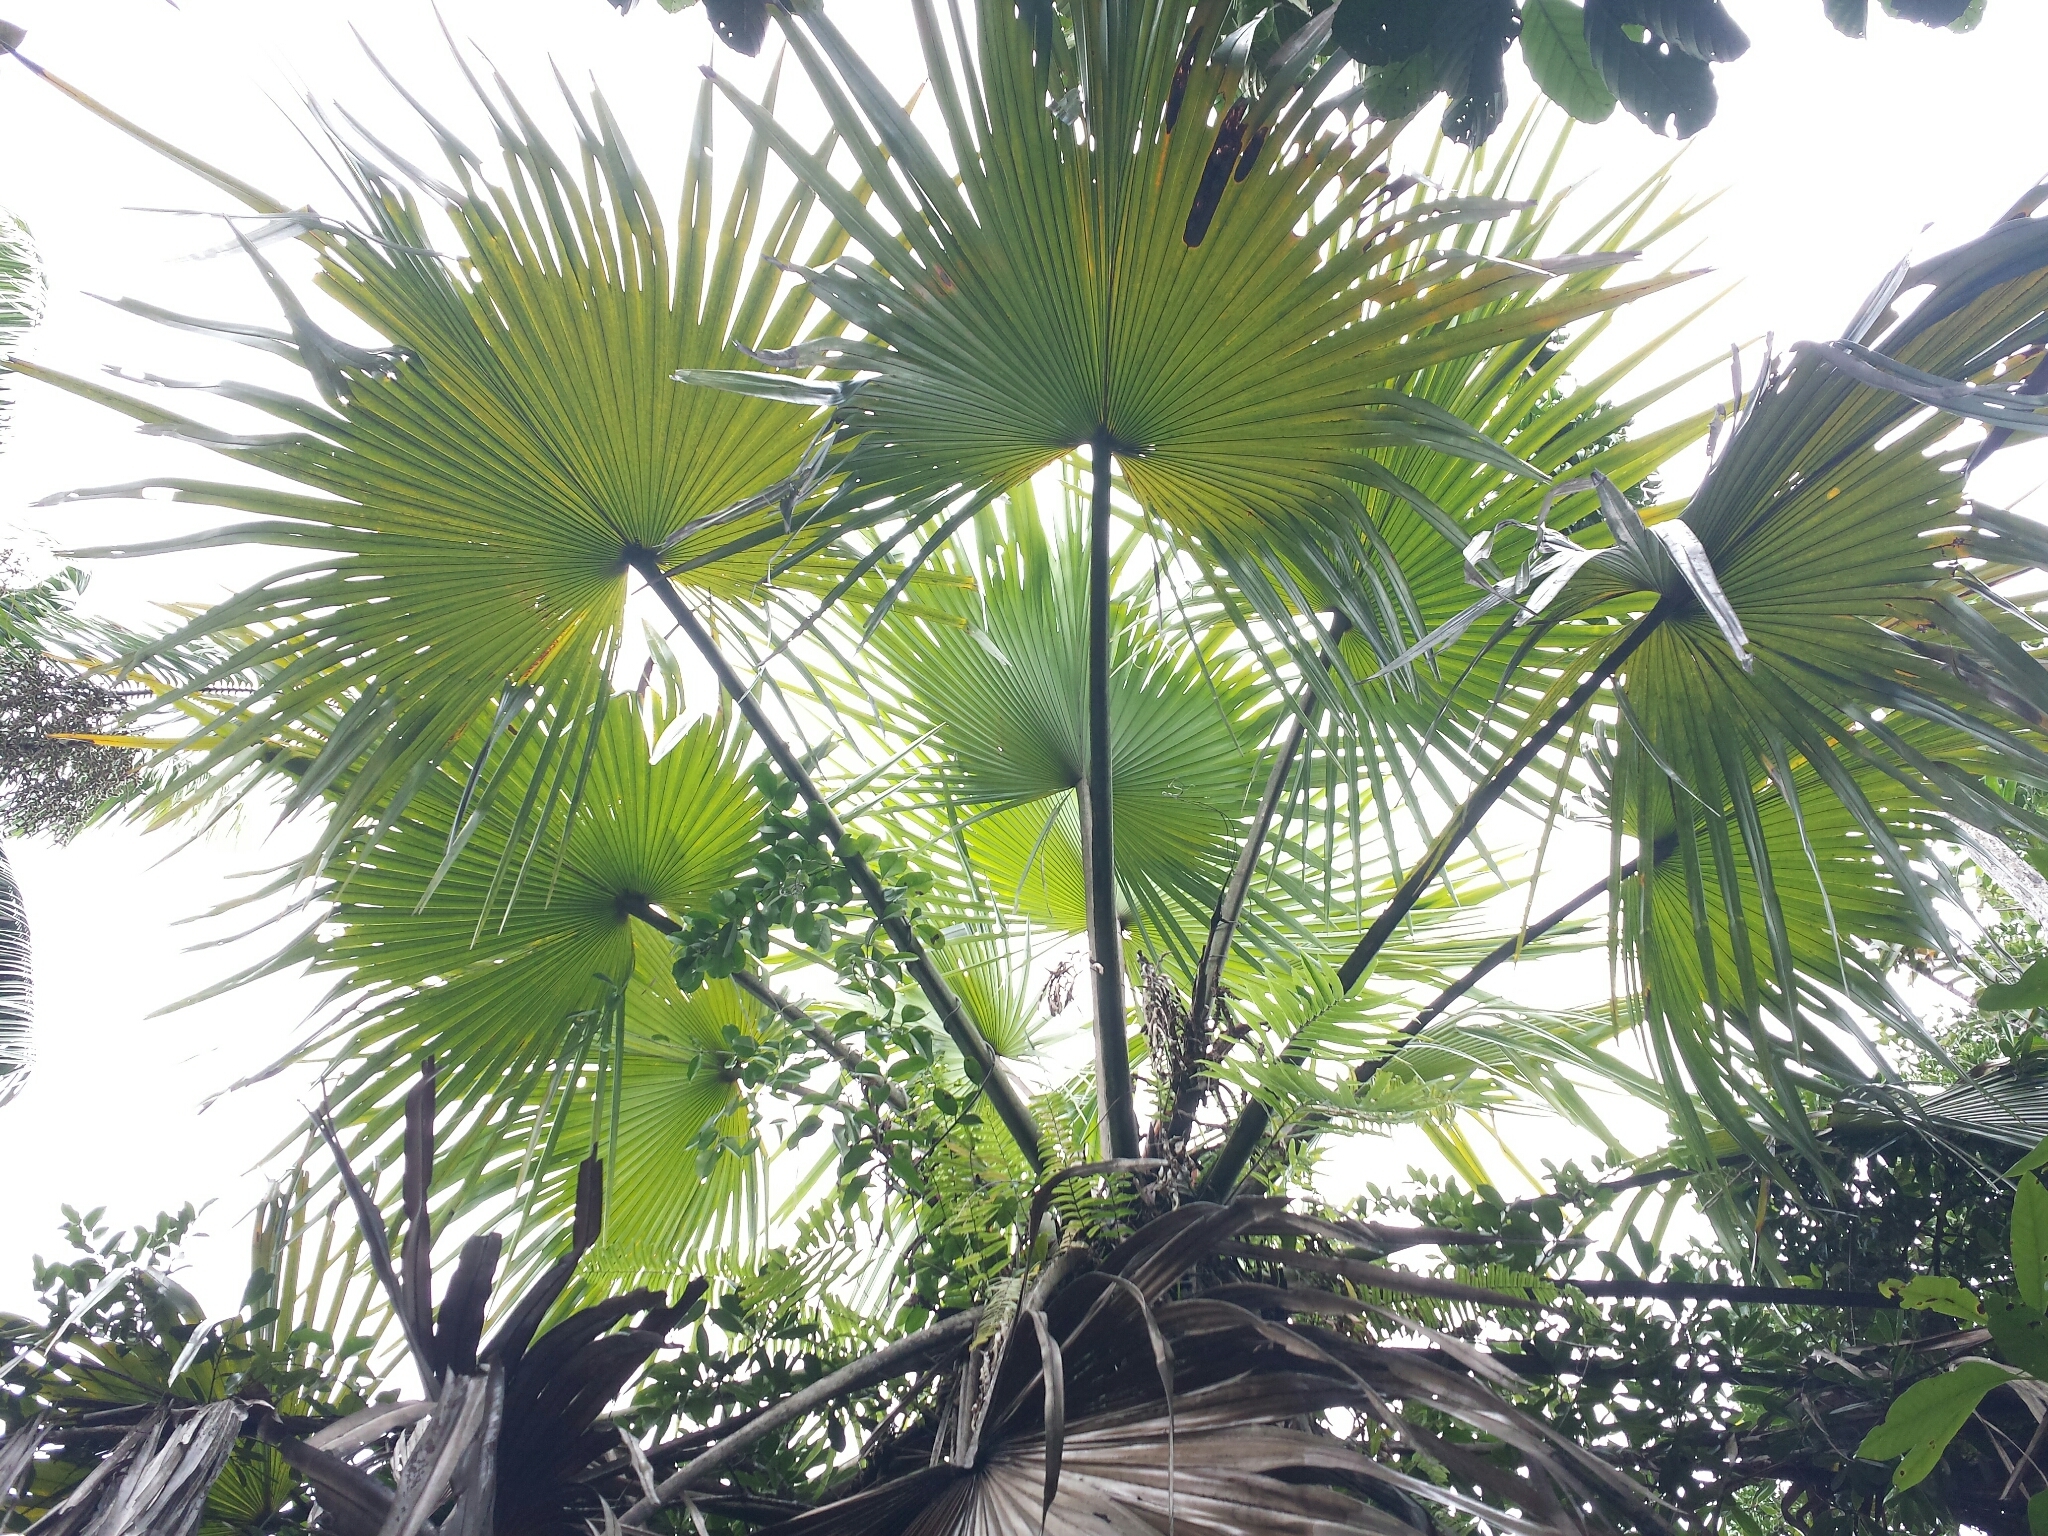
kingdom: Plantae
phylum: Tracheophyta
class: Liliopsida
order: Arecales
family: Arecaceae
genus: Satranala
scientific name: Satranala decussilvae
